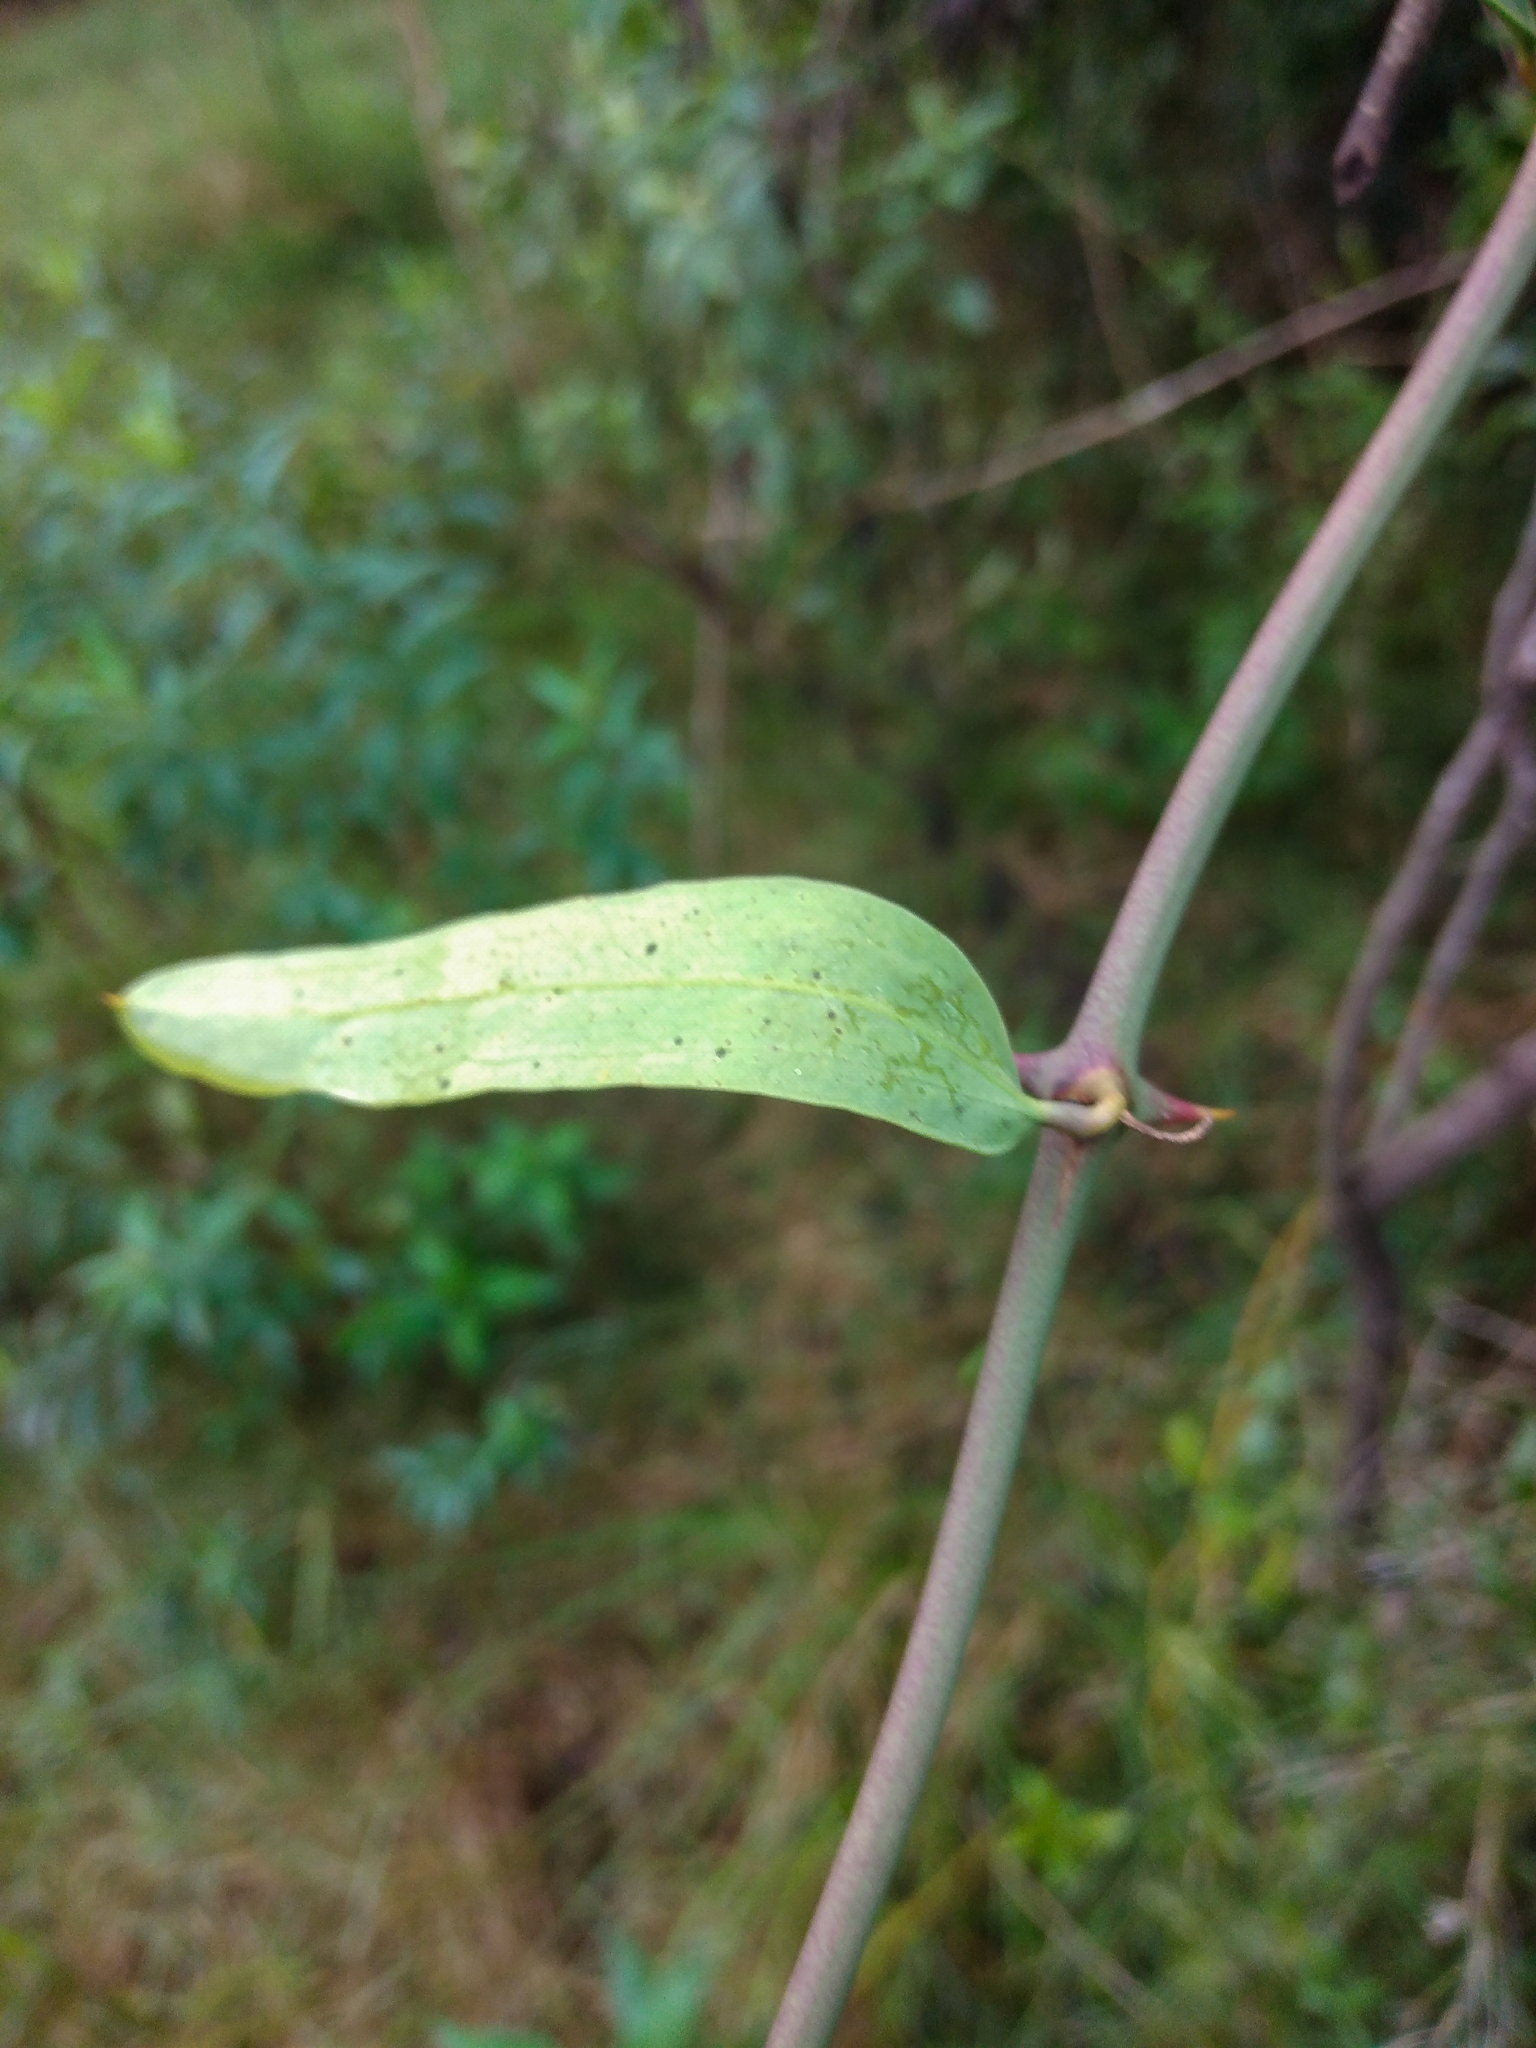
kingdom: Plantae
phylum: Tracheophyta
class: Liliopsida
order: Liliales
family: Smilacaceae
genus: Smilax
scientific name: Smilax campestris
